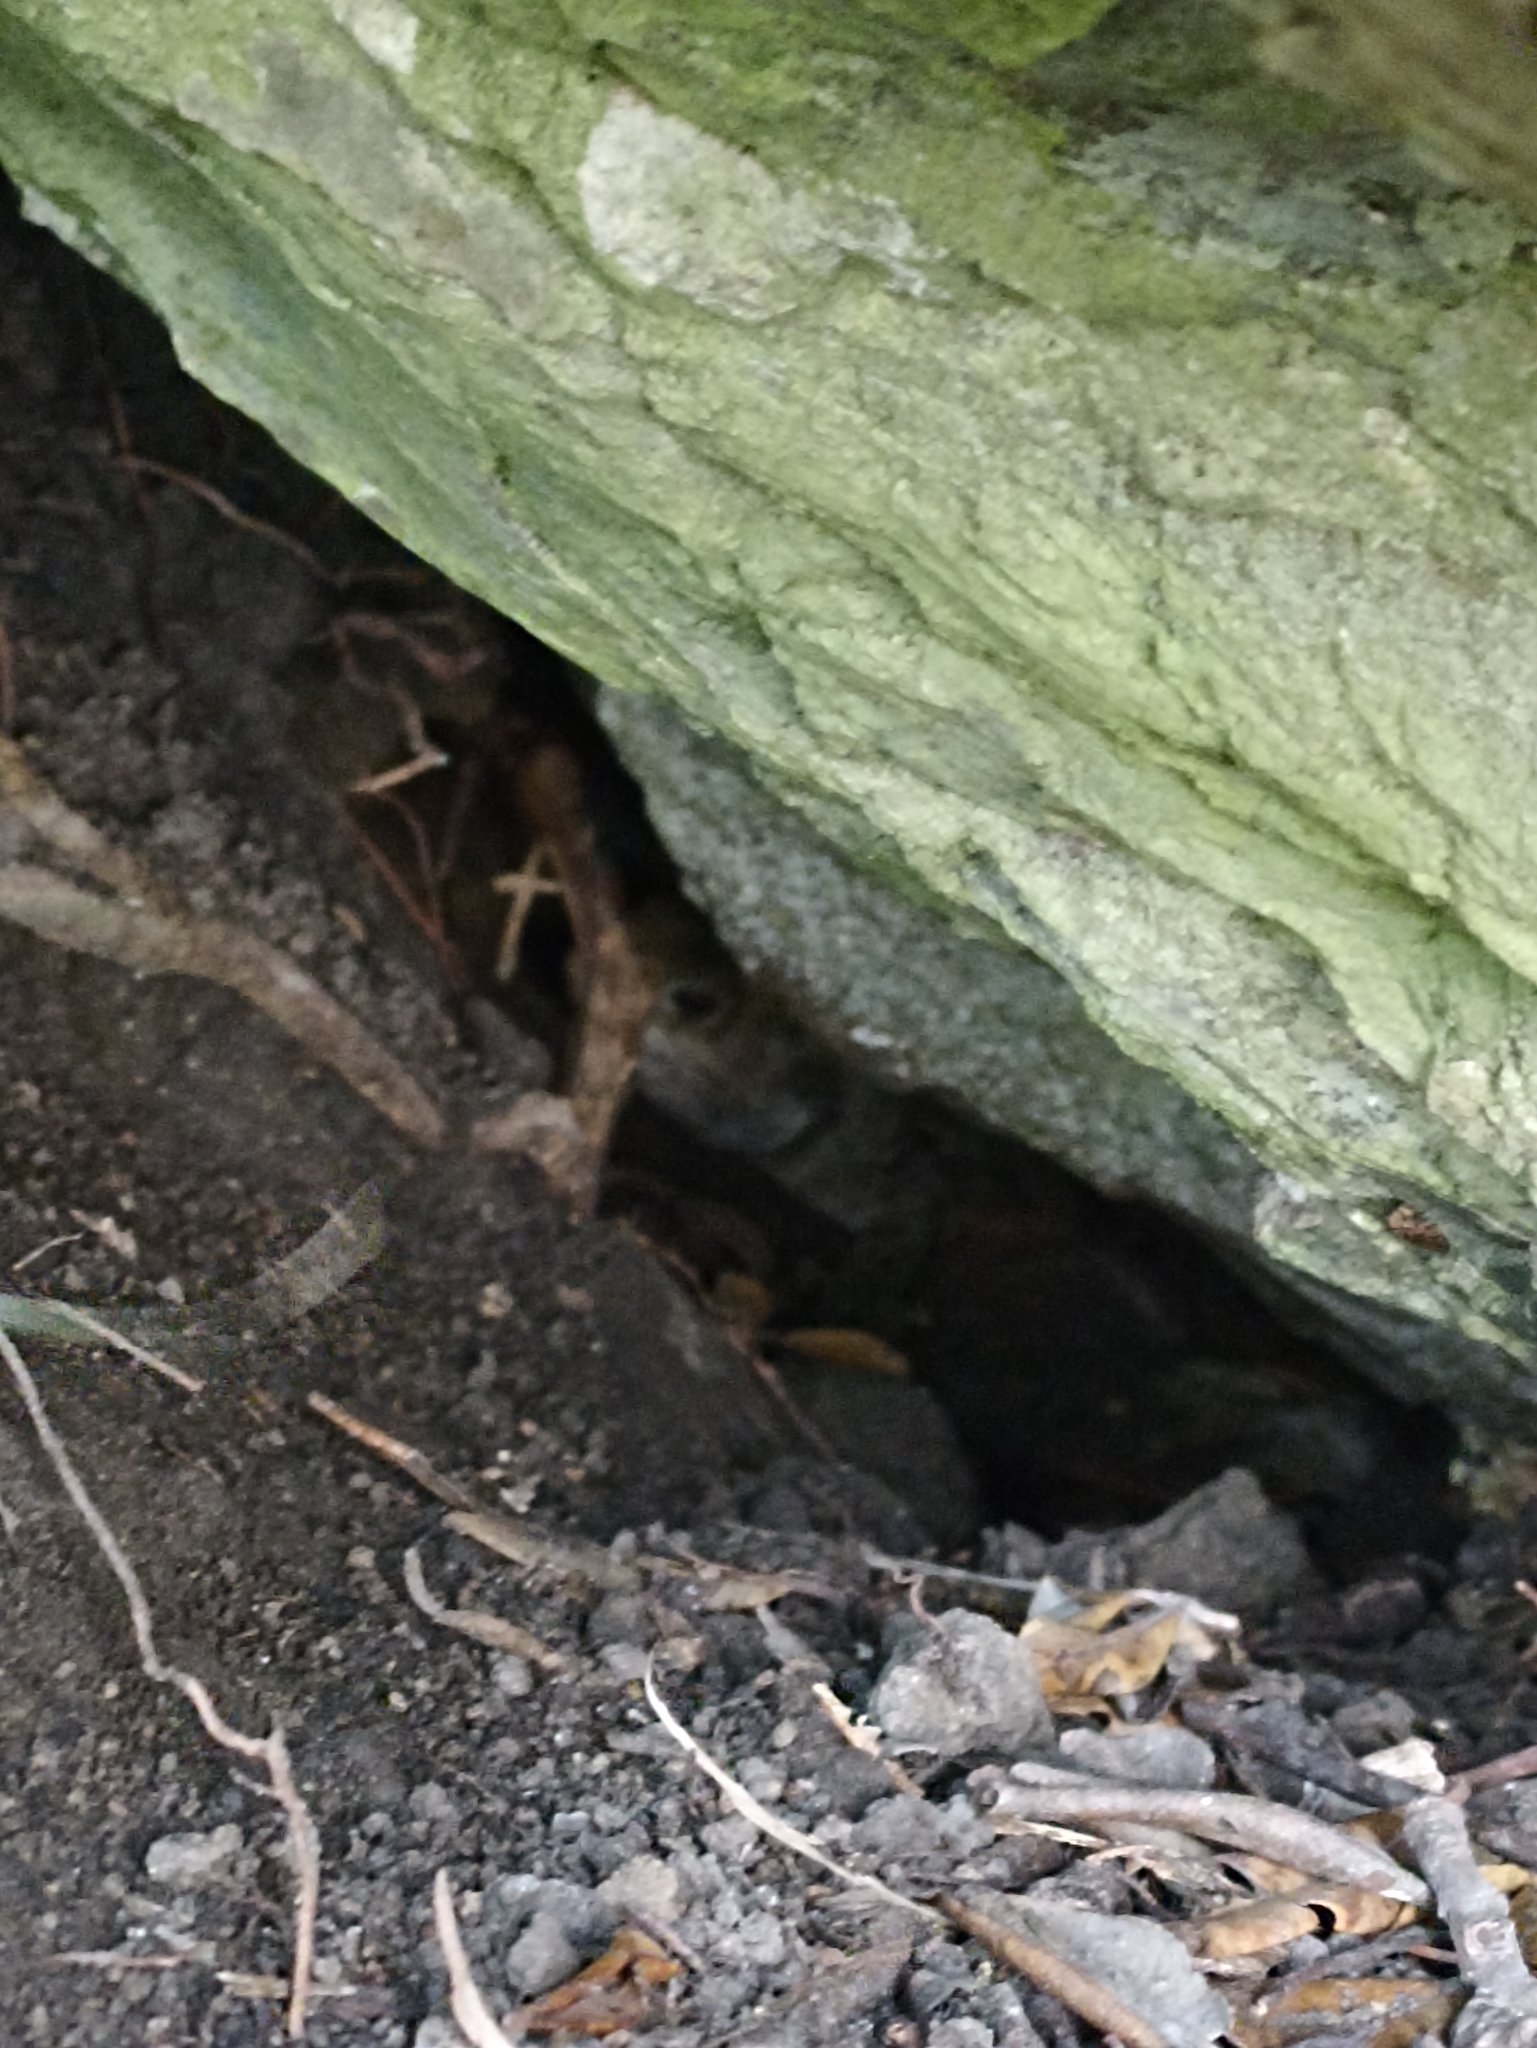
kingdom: Animalia
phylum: Chordata
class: Sphenodontia
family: Sphenodontidae
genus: Sphenodon
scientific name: Sphenodon punctatus
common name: Tuatara
